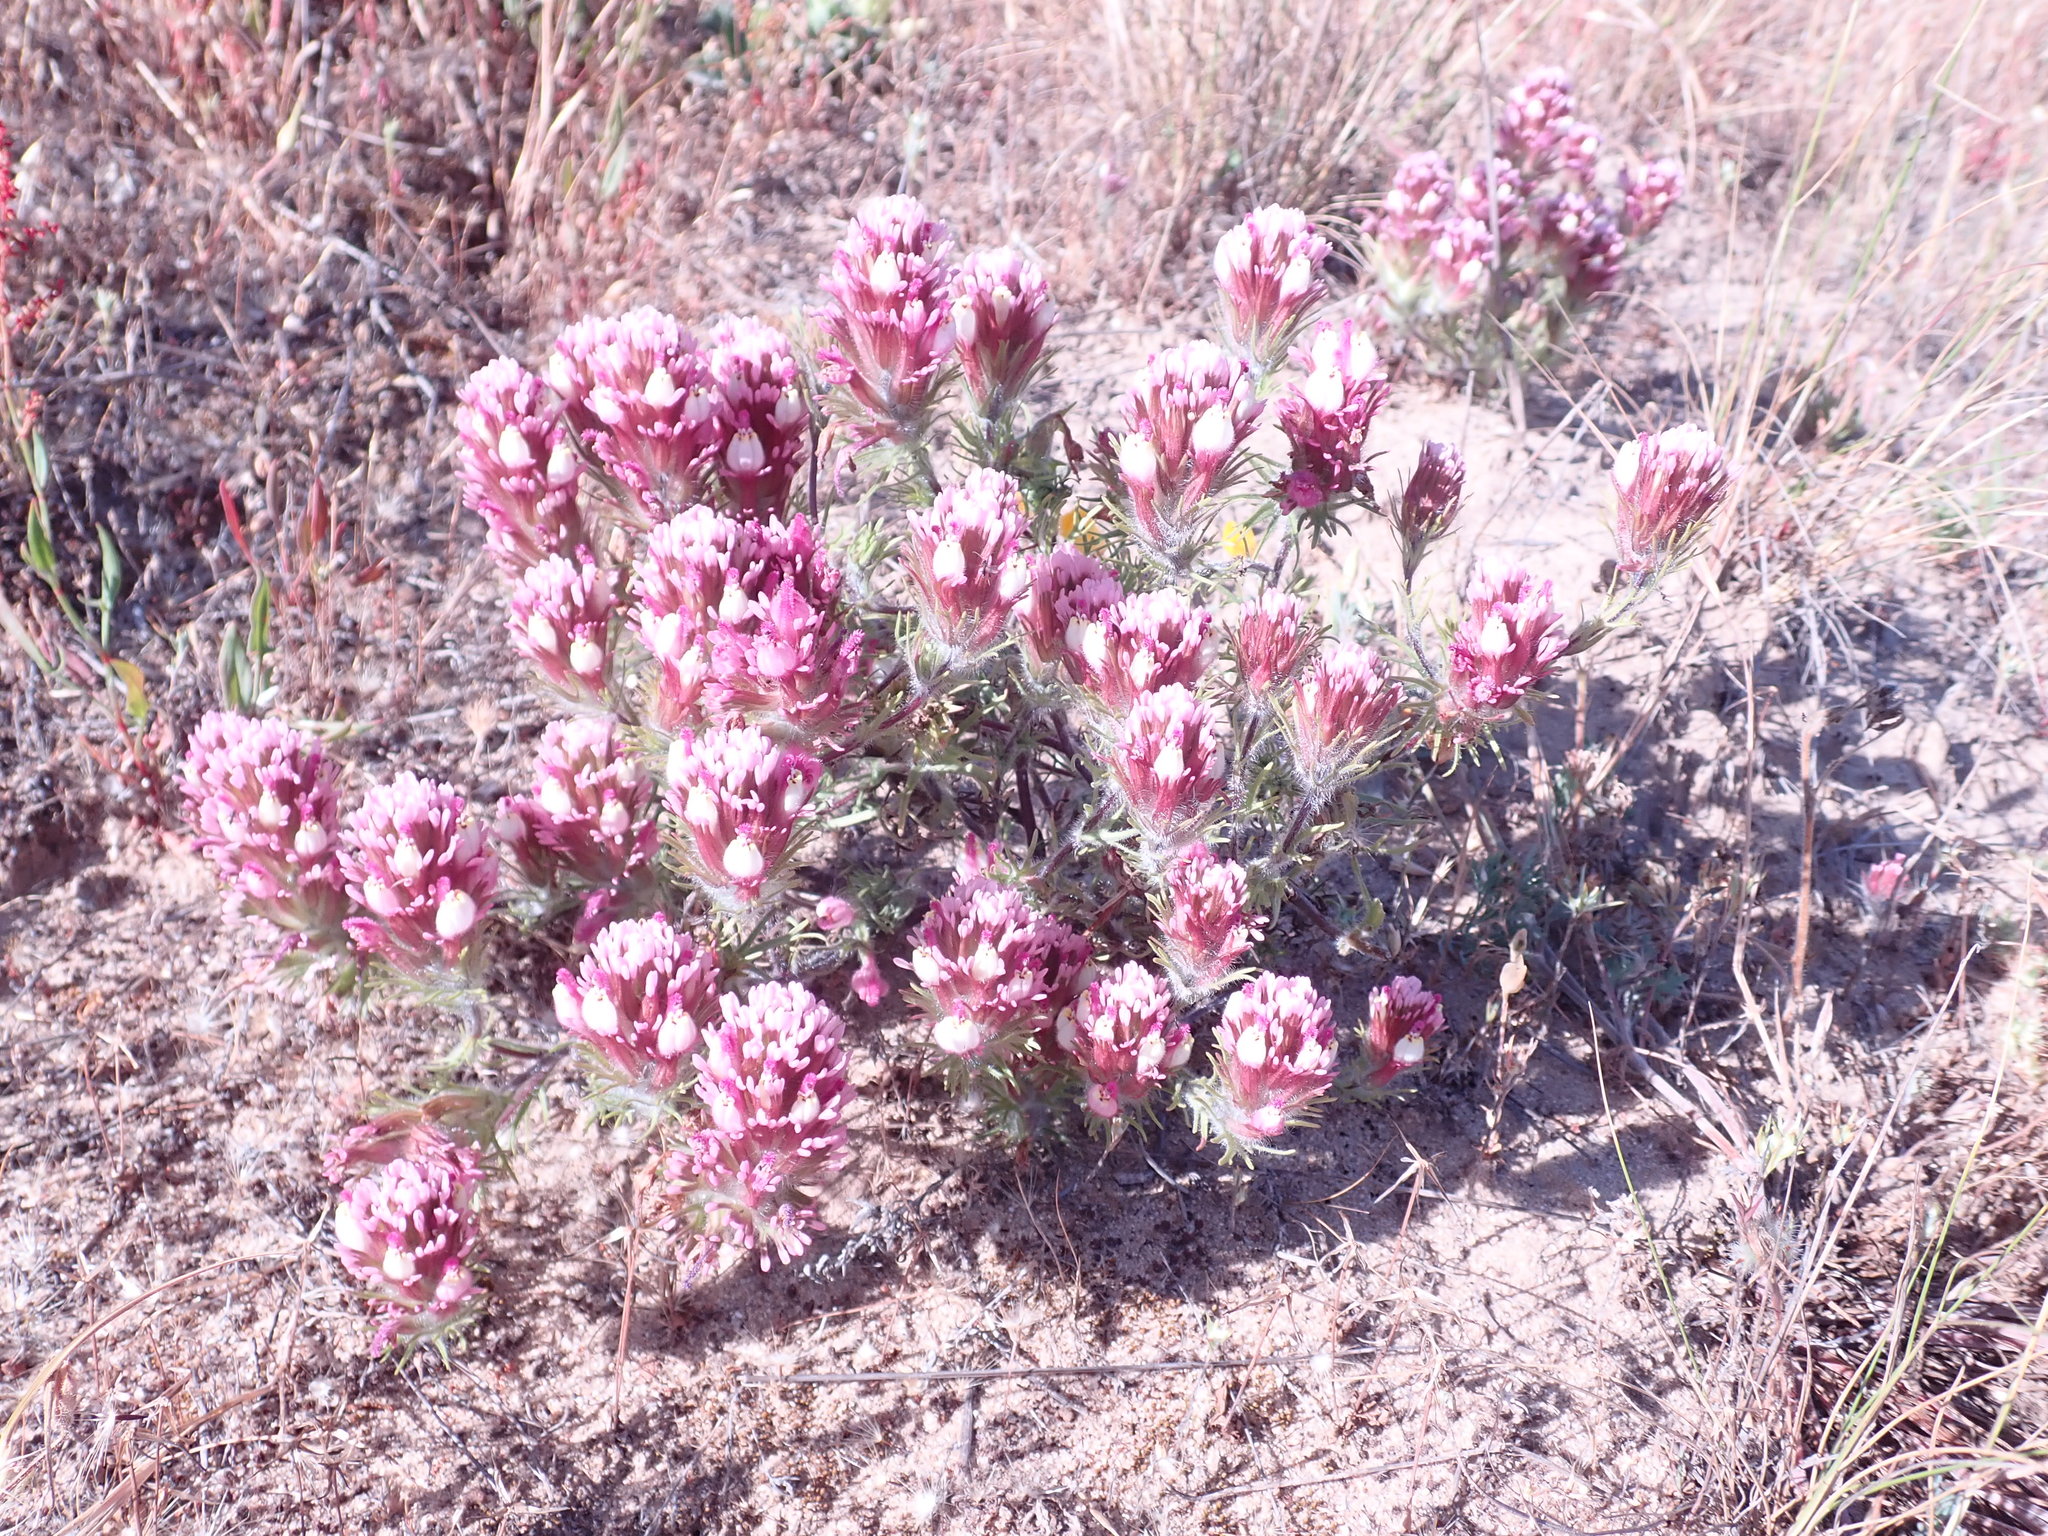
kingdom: Plantae
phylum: Tracheophyta
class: Magnoliopsida
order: Lamiales
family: Orobanchaceae
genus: Castilleja
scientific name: Castilleja exserta
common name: Purple owl-clover
